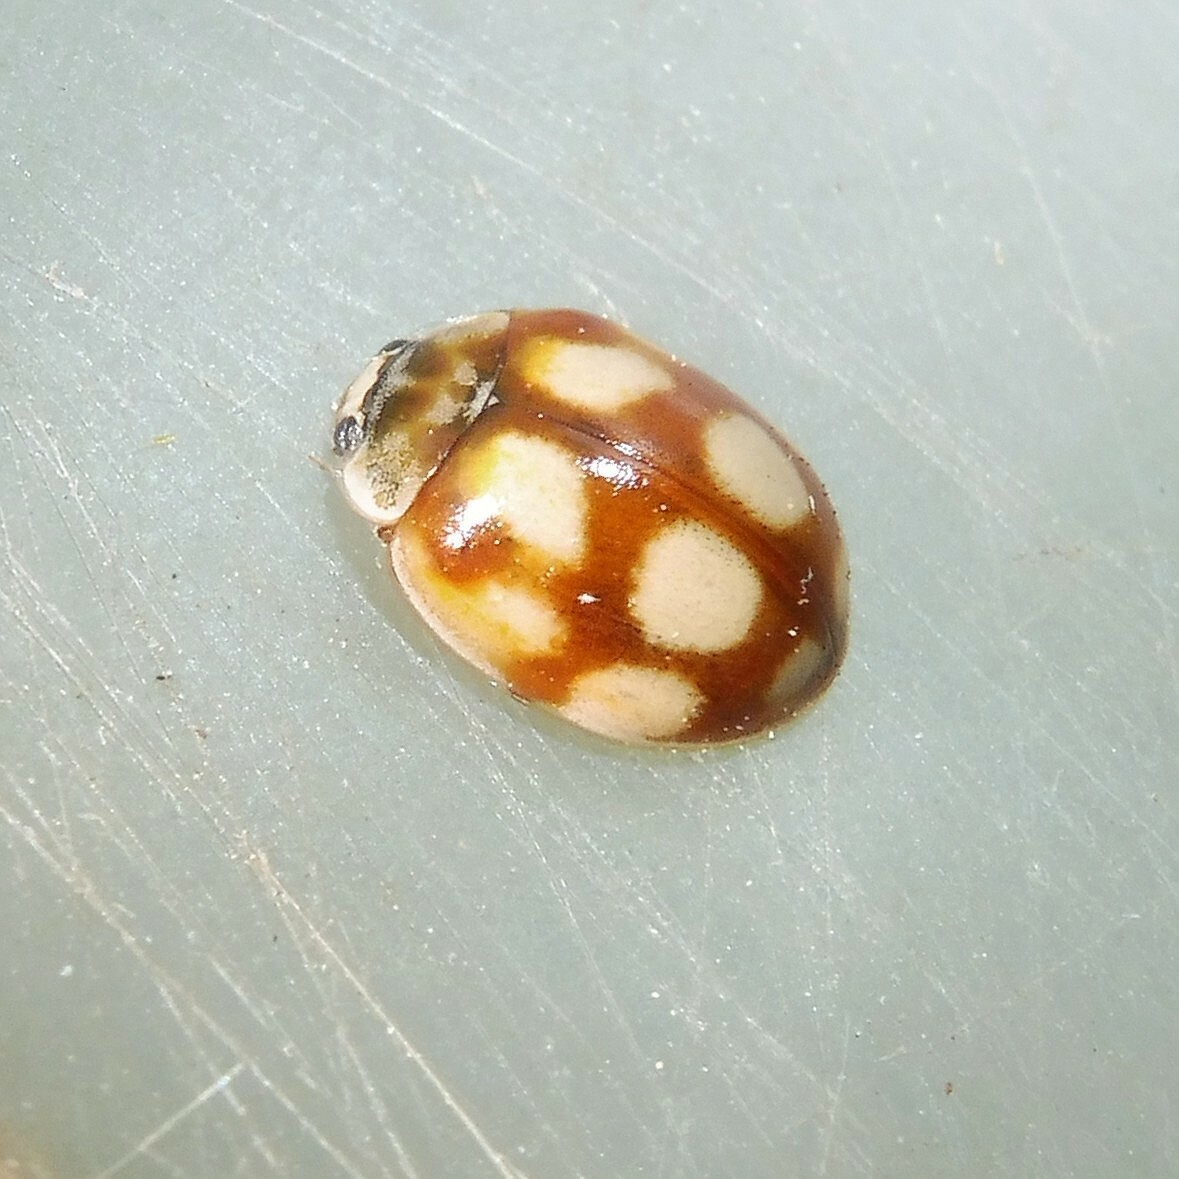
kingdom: Animalia
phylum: Arthropoda
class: Insecta
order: Coleoptera
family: Coccinellidae
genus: Adalia
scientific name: Adalia decempunctata
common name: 10-spot ladybird
